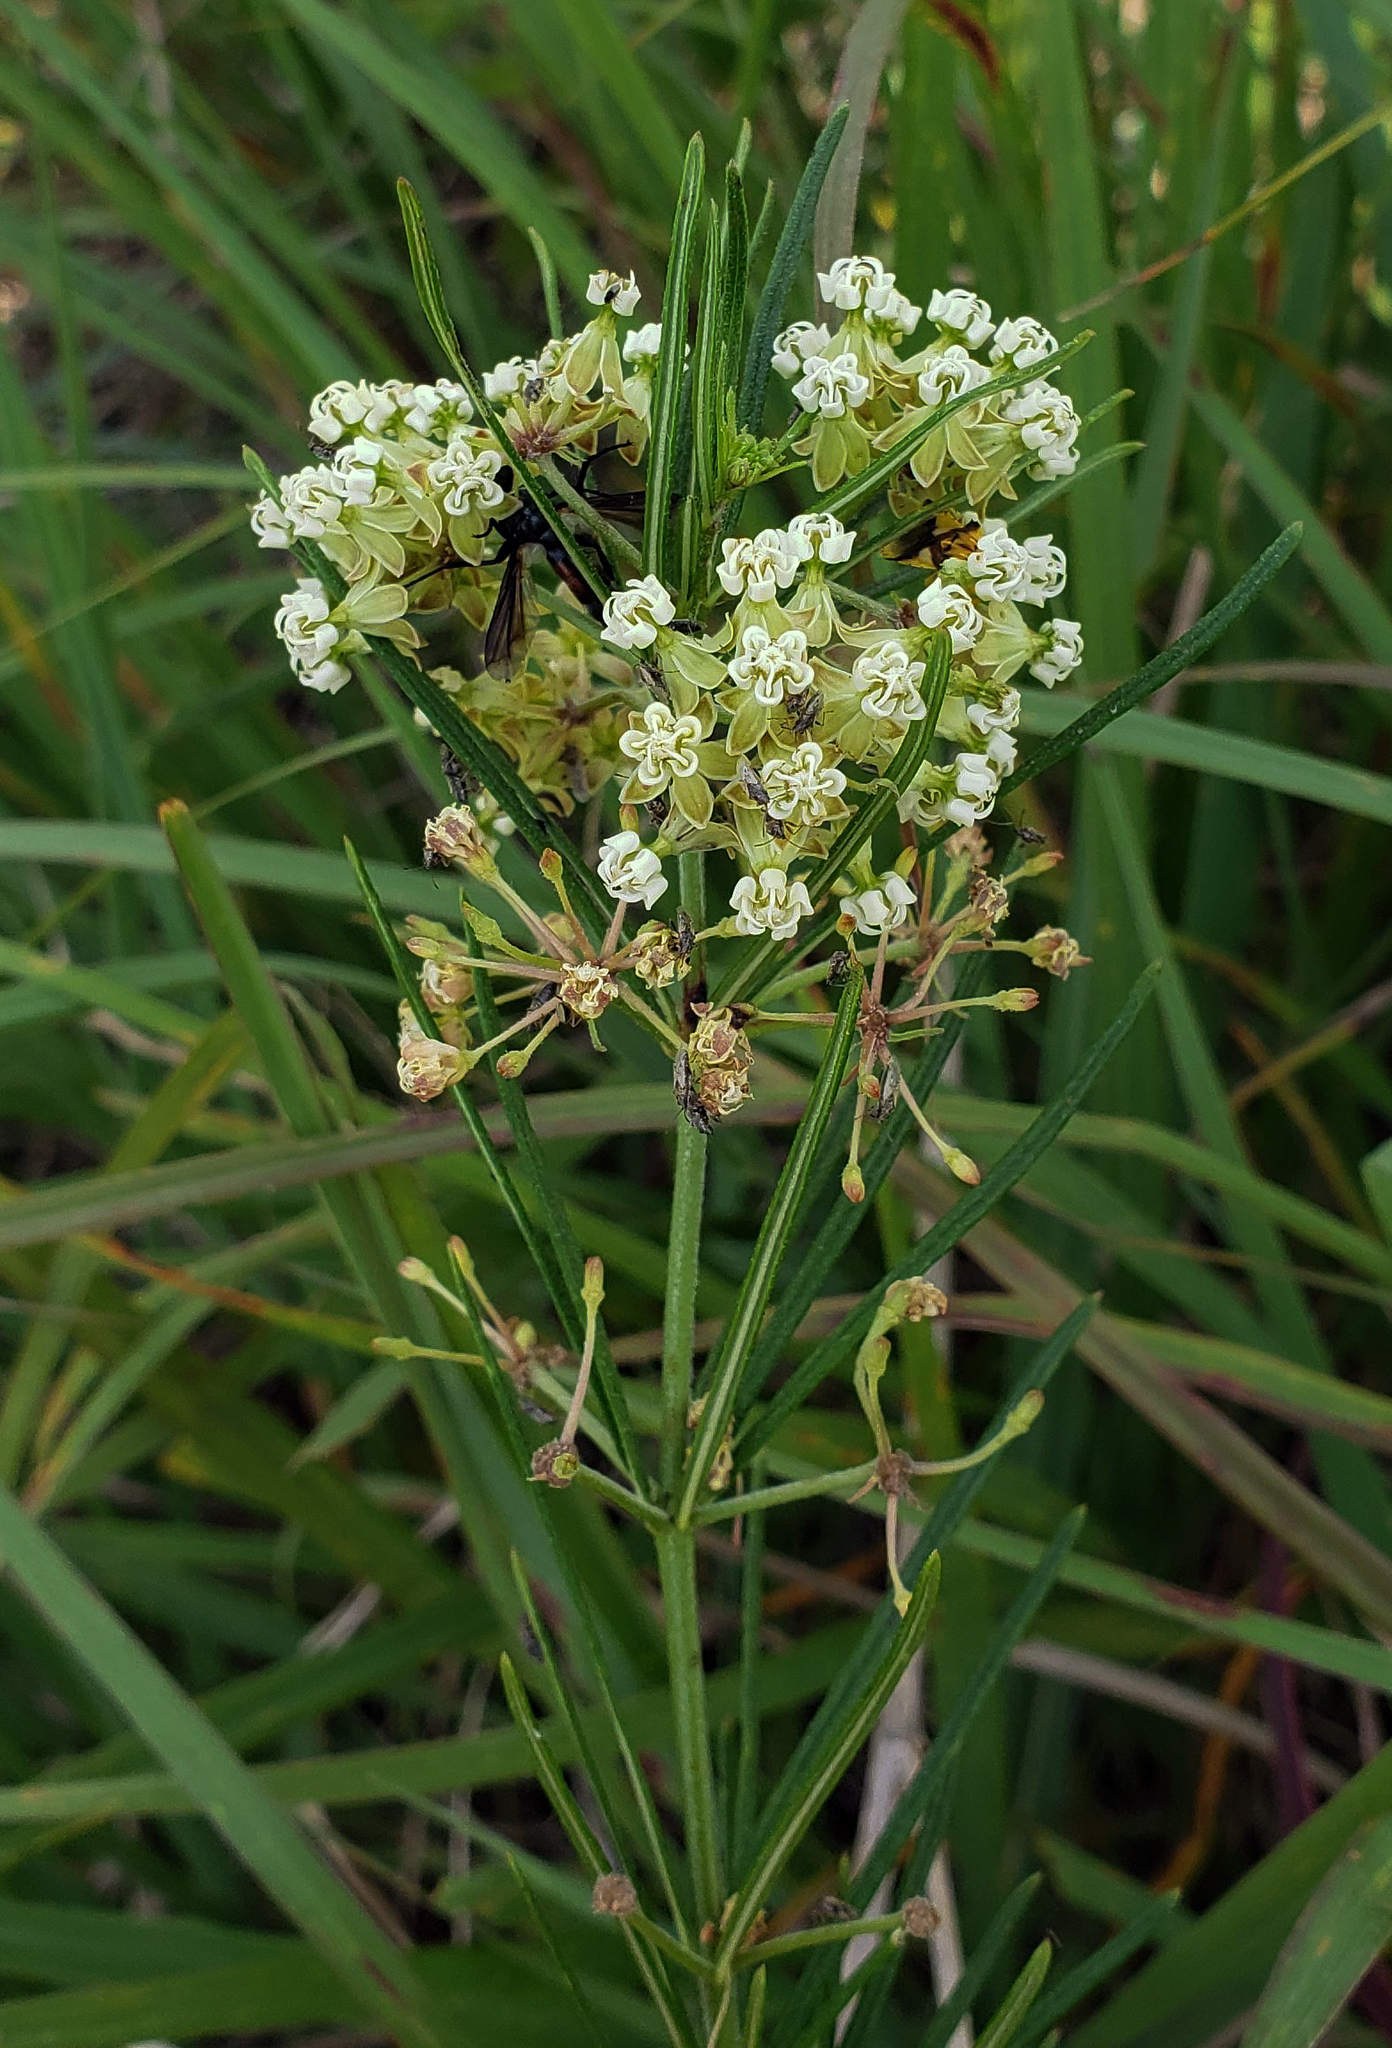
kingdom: Plantae
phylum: Tracheophyta
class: Magnoliopsida
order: Gentianales
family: Apocynaceae
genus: Asclepias
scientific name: Asclepias verticillata
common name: Eastern whorled milkweed
